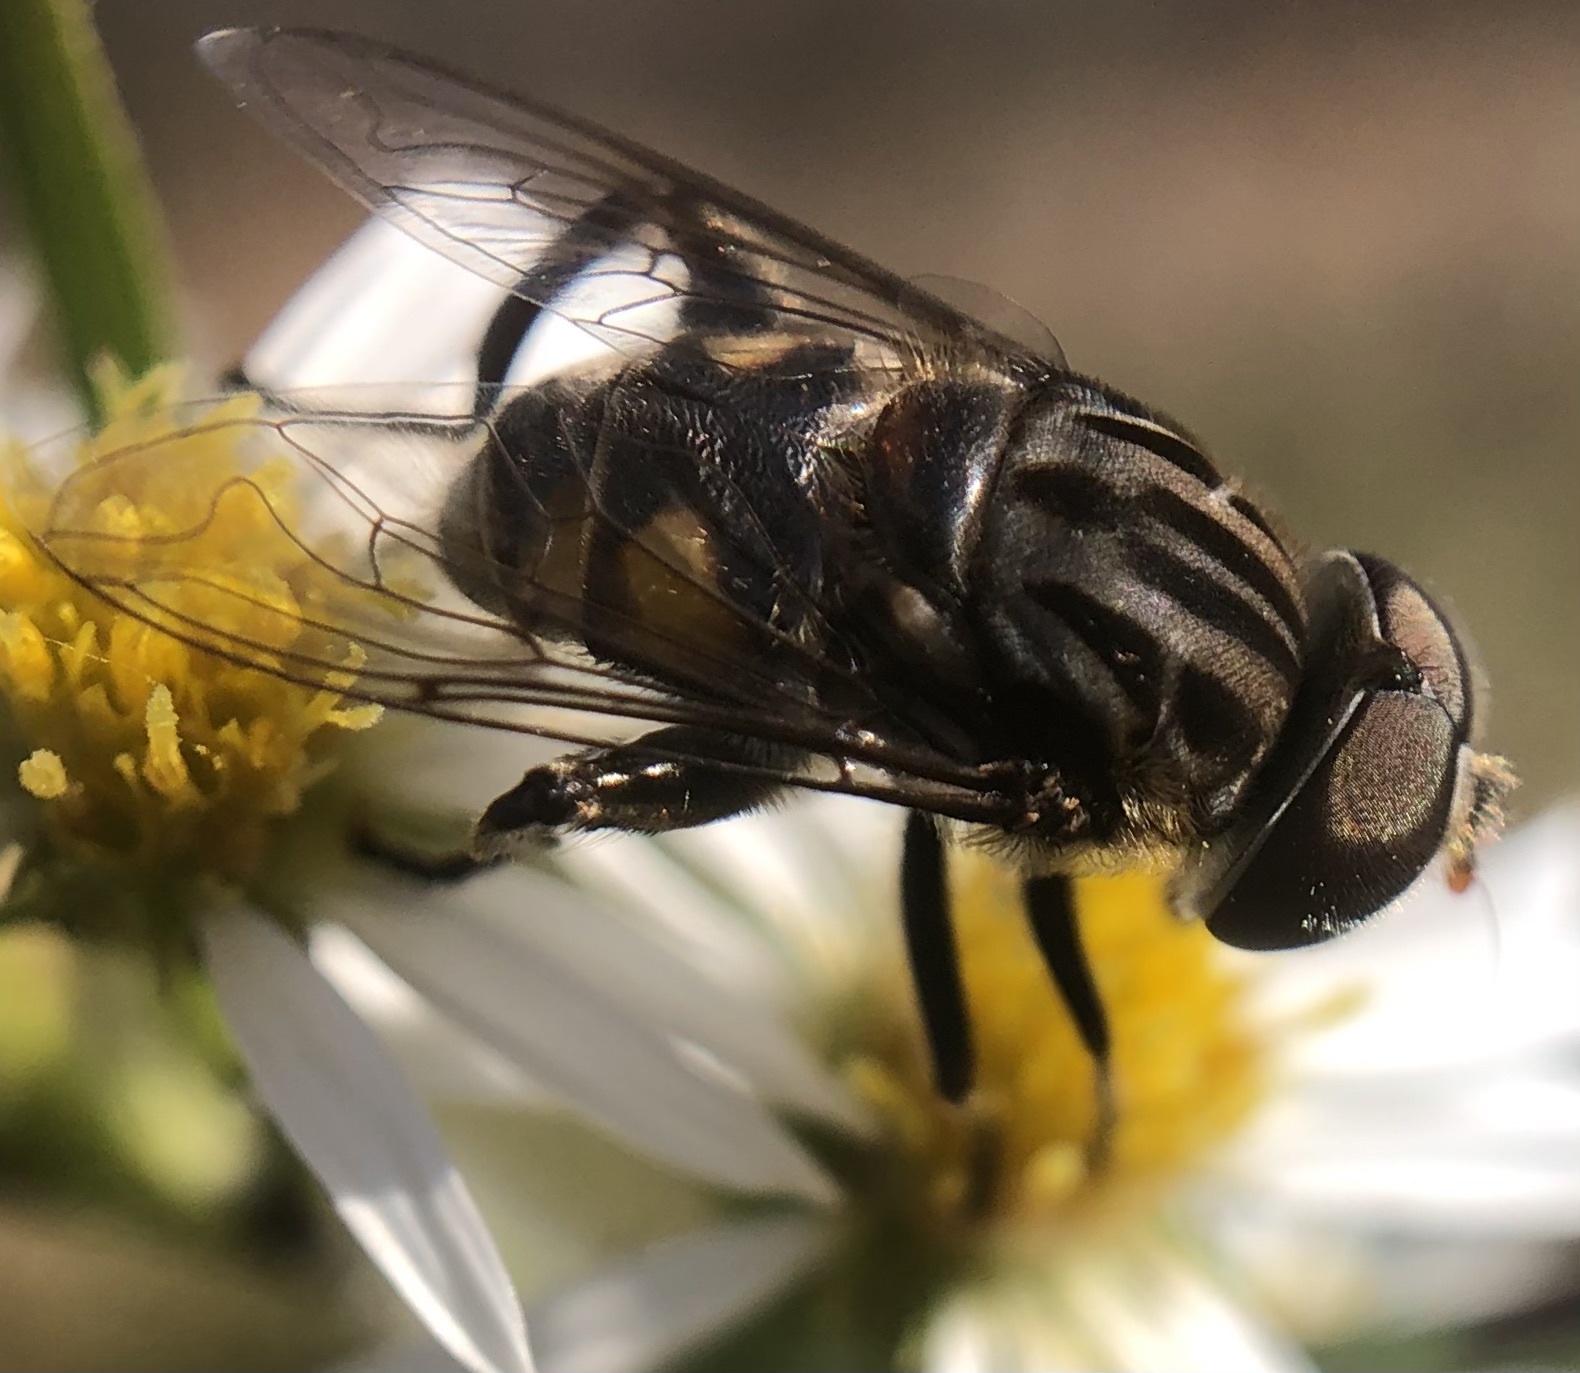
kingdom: Animalia
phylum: Arthropoda
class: Insecta
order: Diptera
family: Syrphidae
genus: Palpada
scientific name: Palpada furcata
